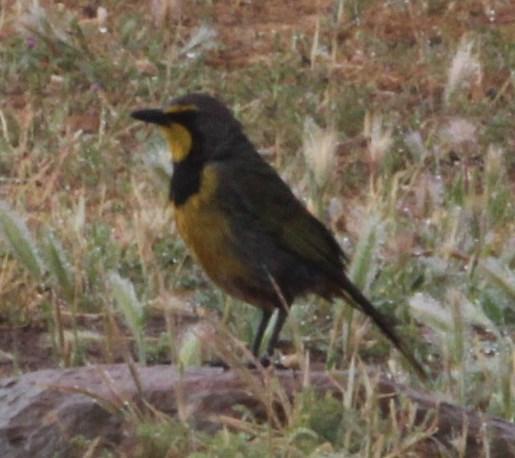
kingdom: Animalia
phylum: Chordata
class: Aves
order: Passeriformes
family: Malaconotidae
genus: Telophorus
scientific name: Telophorus zeylonus
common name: Bokmakierie
